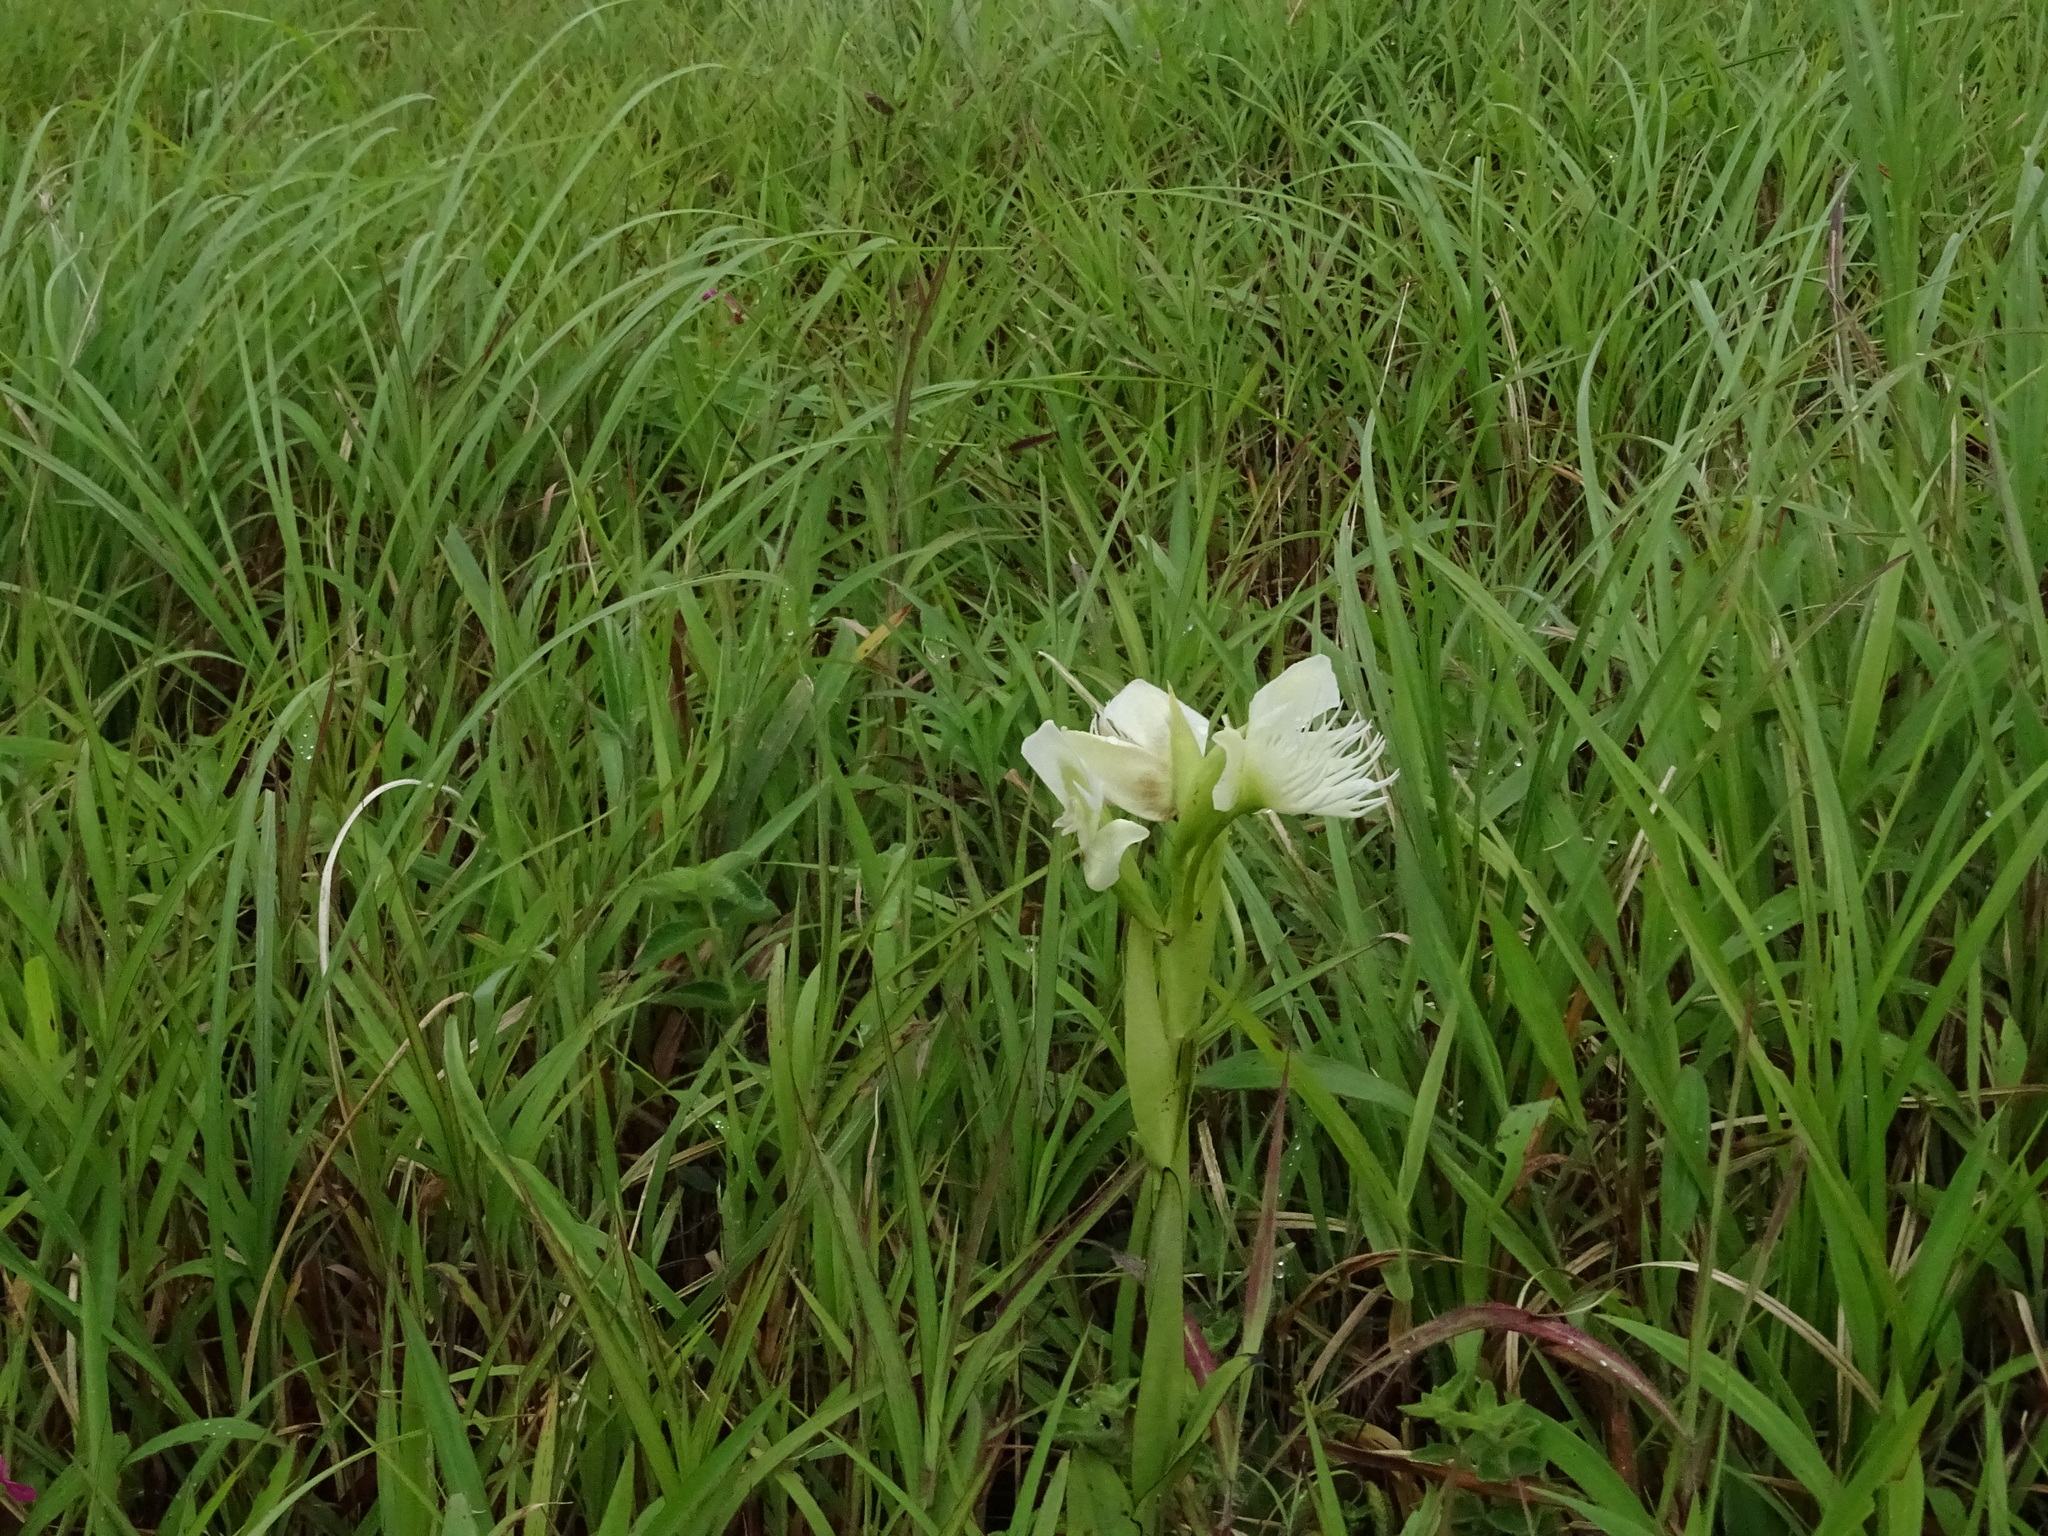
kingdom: Plantae
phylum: Tracheophyta
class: Liliopsida
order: Asparagales
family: Orchidaceae
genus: Pecteilis
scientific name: Pecteilis gigantea
